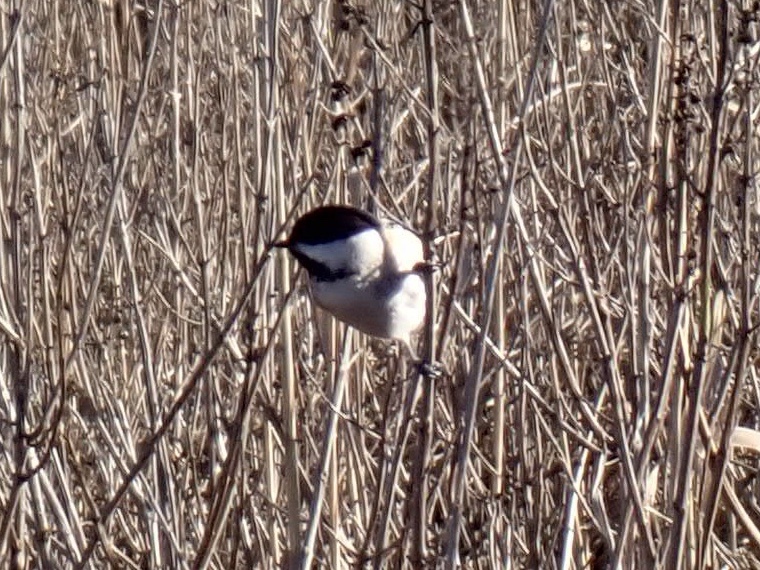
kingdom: Animalia
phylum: Chordata
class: Aves
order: Passeriformes
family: Paridae
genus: Poecile
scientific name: Poecile atricapillus
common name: Black-capped chickadee
